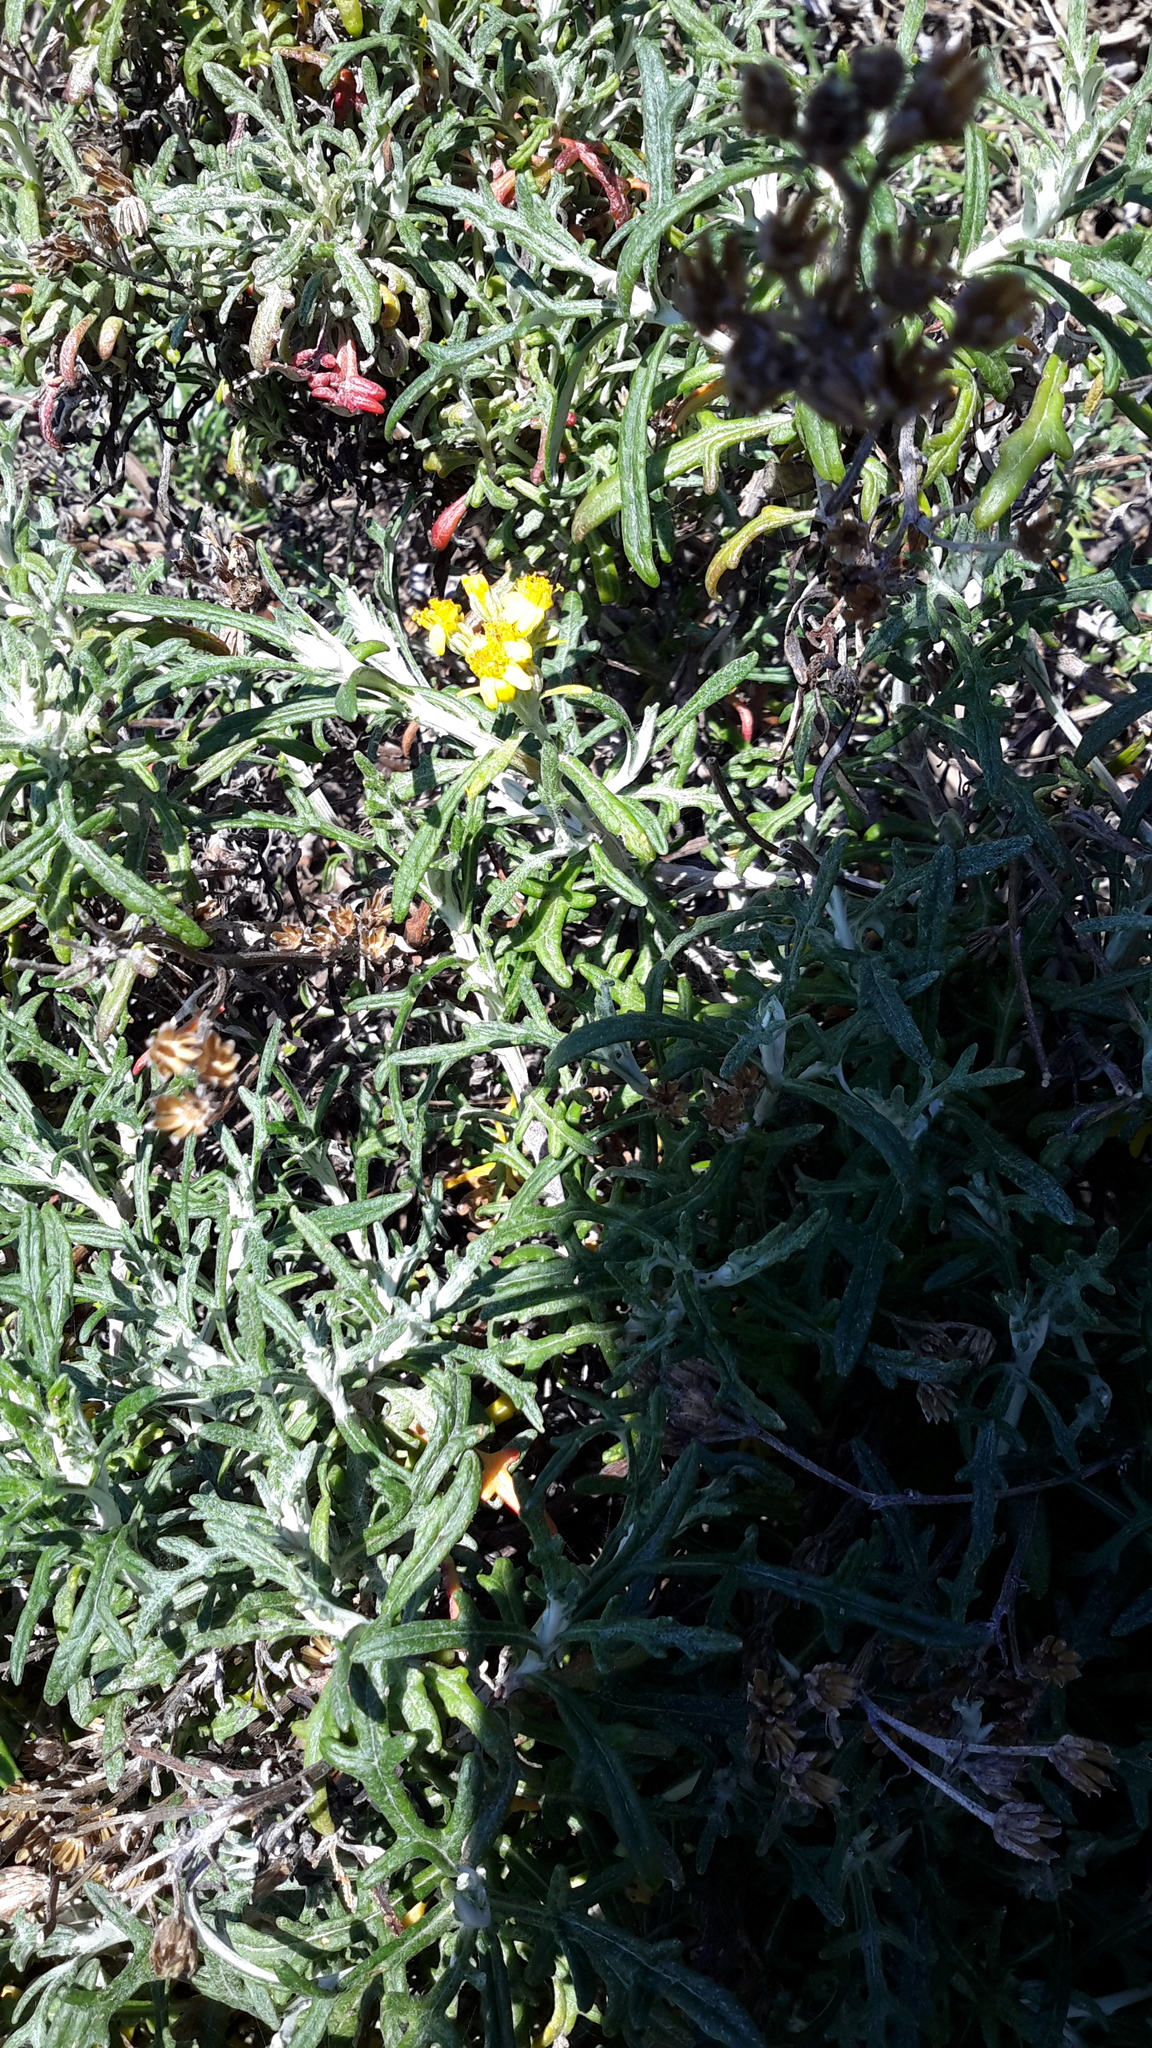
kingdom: Plantae
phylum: Tracheophyta
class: Magnoliopsida
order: Asterales
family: Asteraceae
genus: Eriophyllum
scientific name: Eriophyllum staechadifolium
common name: Lizardtail
